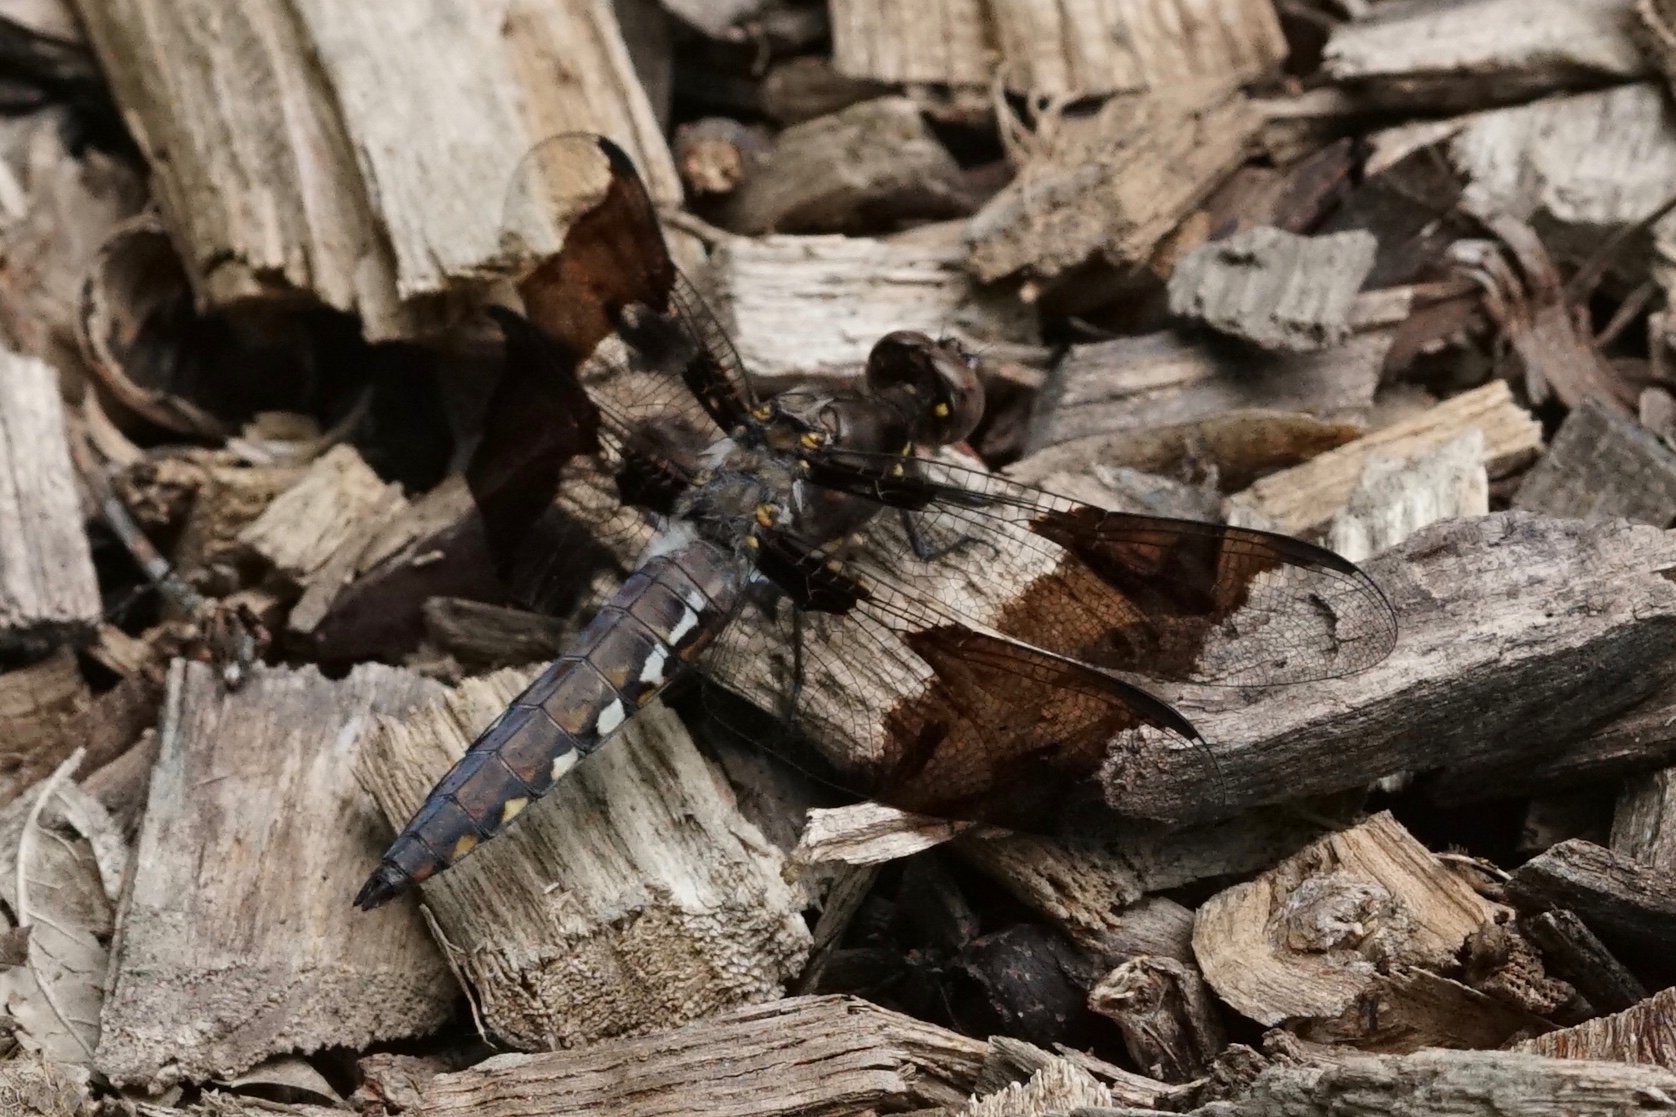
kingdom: Animalia
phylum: Arthropoda
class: Insecta
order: Odonata
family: Libellulidae
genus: Plathemis
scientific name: Plathemis lydia
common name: Common whitetail
